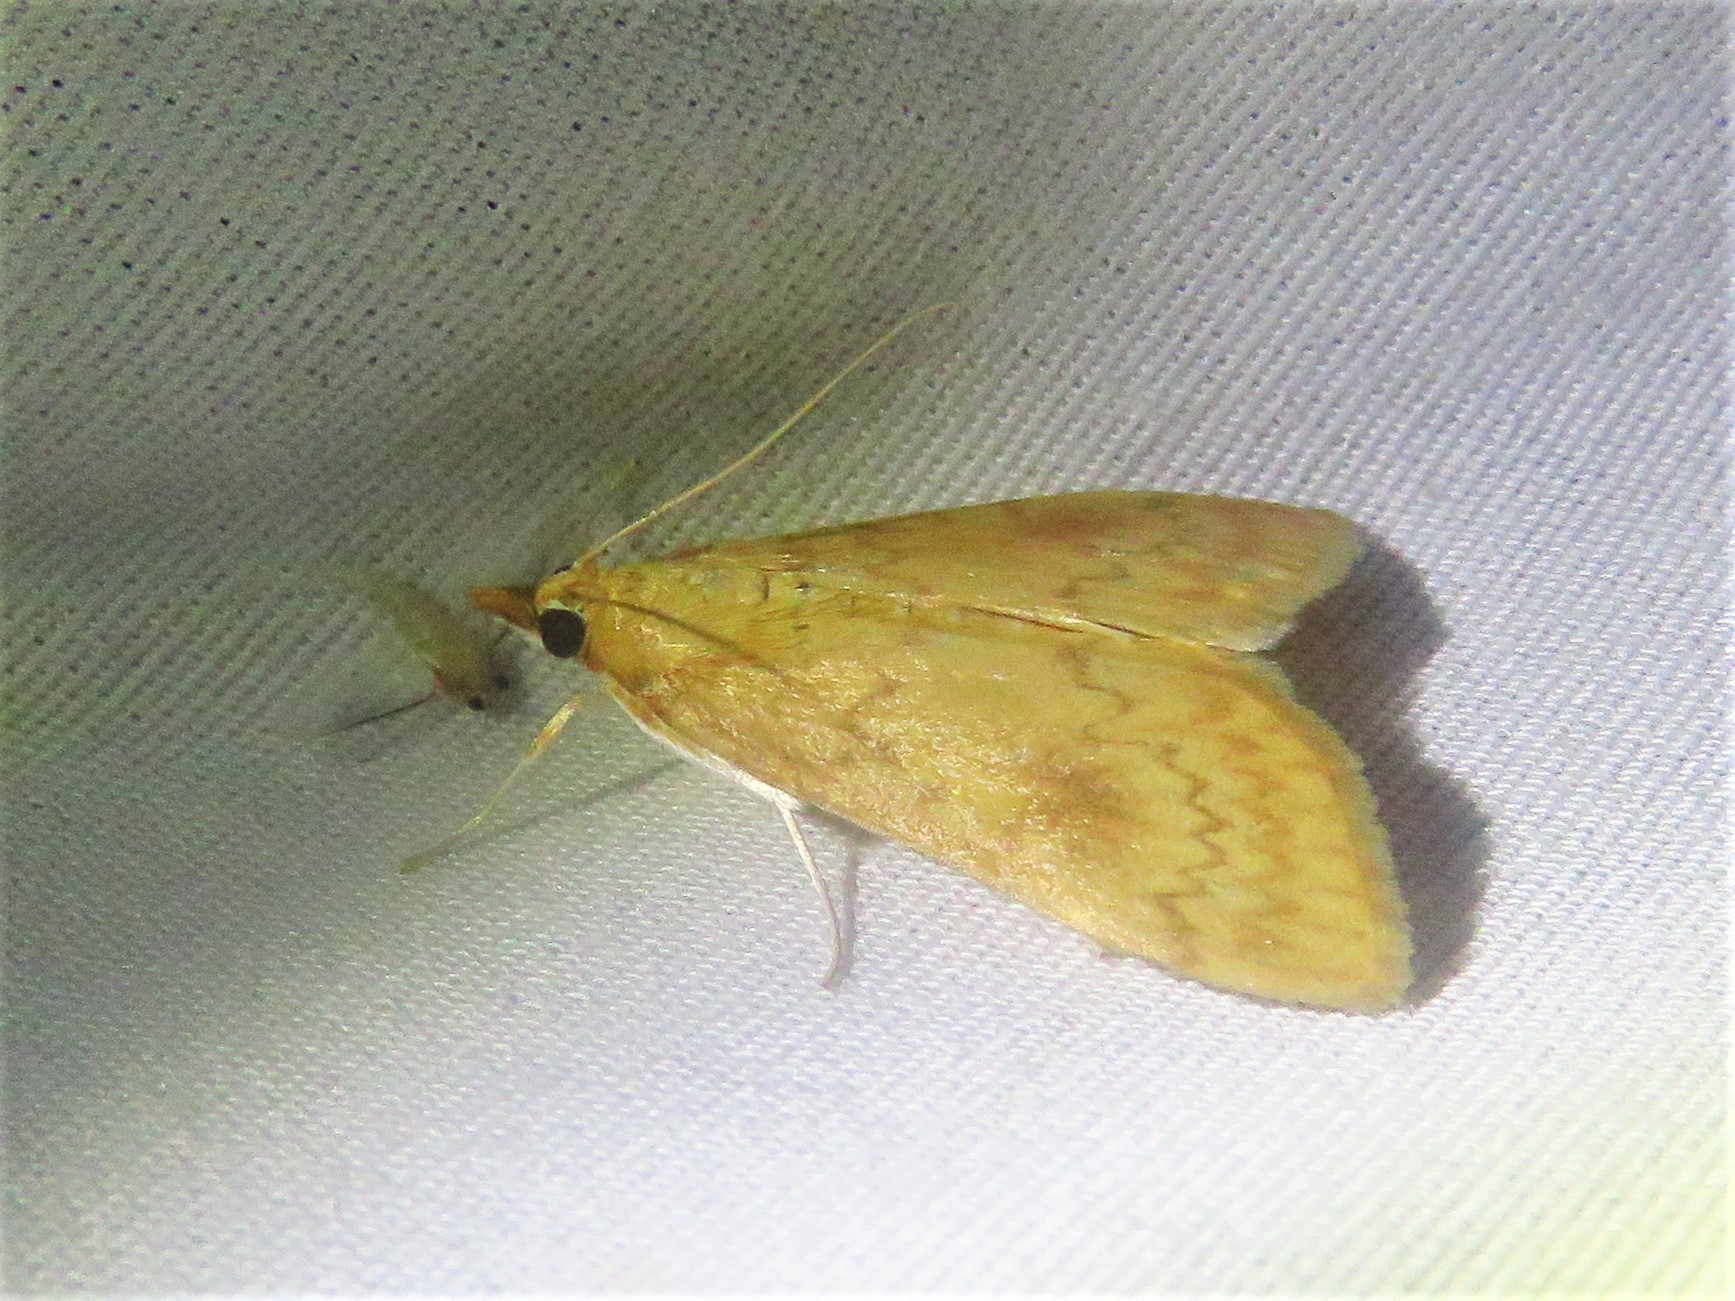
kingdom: Animalia
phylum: Arthropoda
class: Insecta
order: Lepidoptera
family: Crambidae
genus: Ostrinia
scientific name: Ostrinia penitalis
